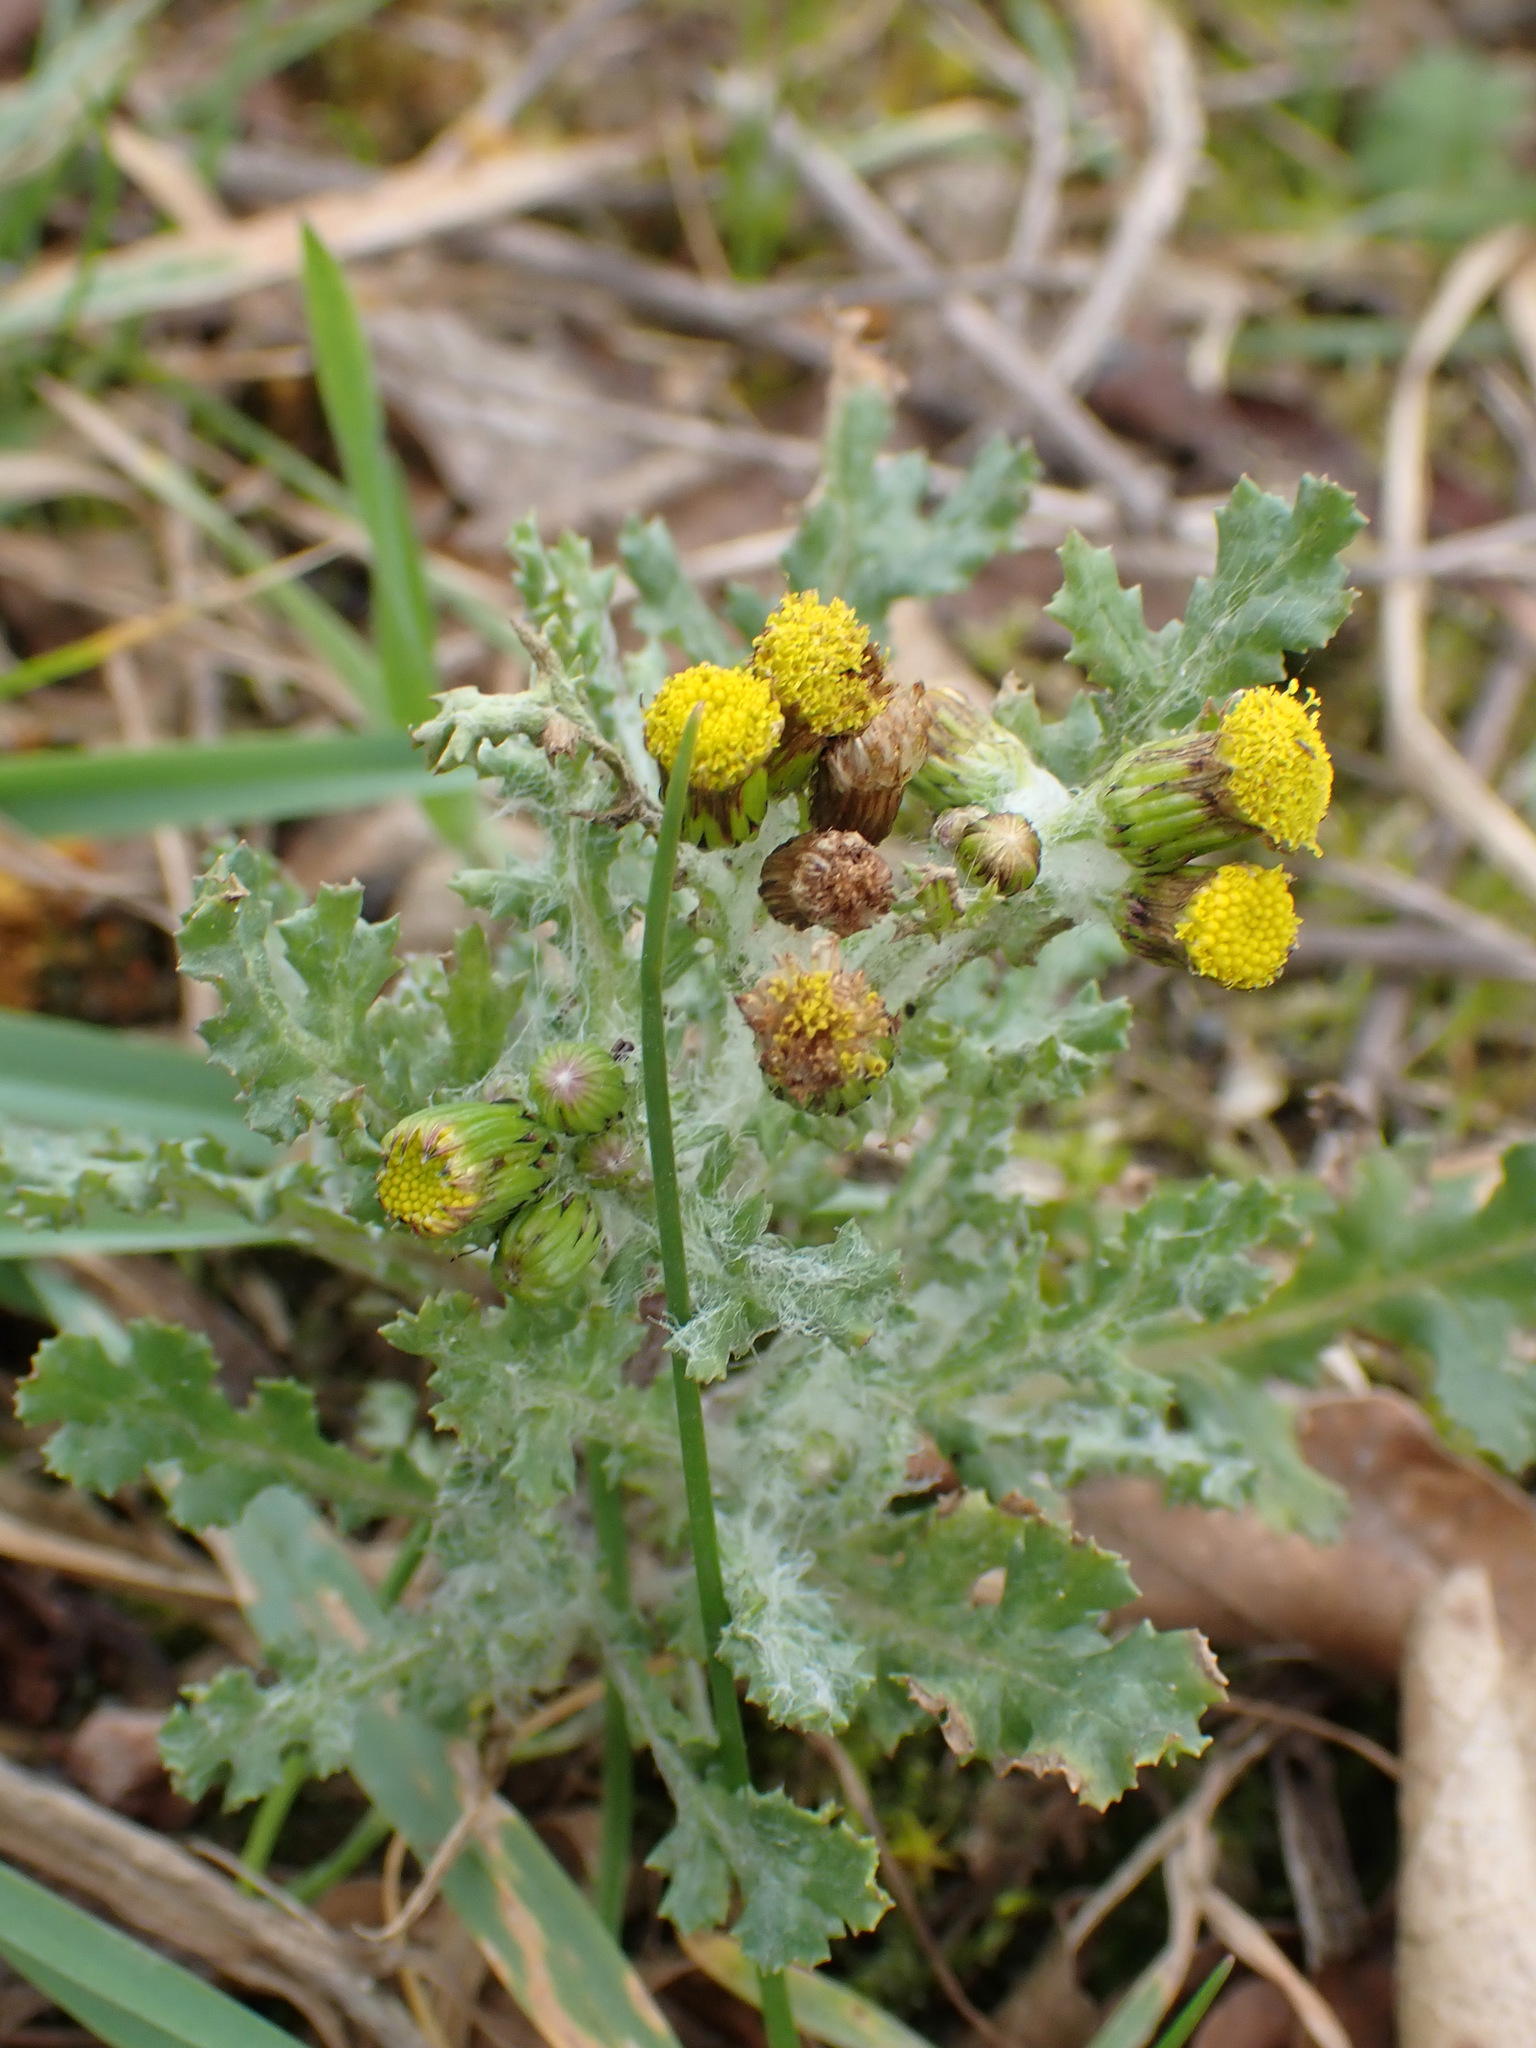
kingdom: Plantae
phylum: Tracheophyta
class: Magnoliopsida
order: Asterales
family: Asteraceae
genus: Senecio
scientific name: Senecio vulgaris
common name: Old-man-in-the-spring
